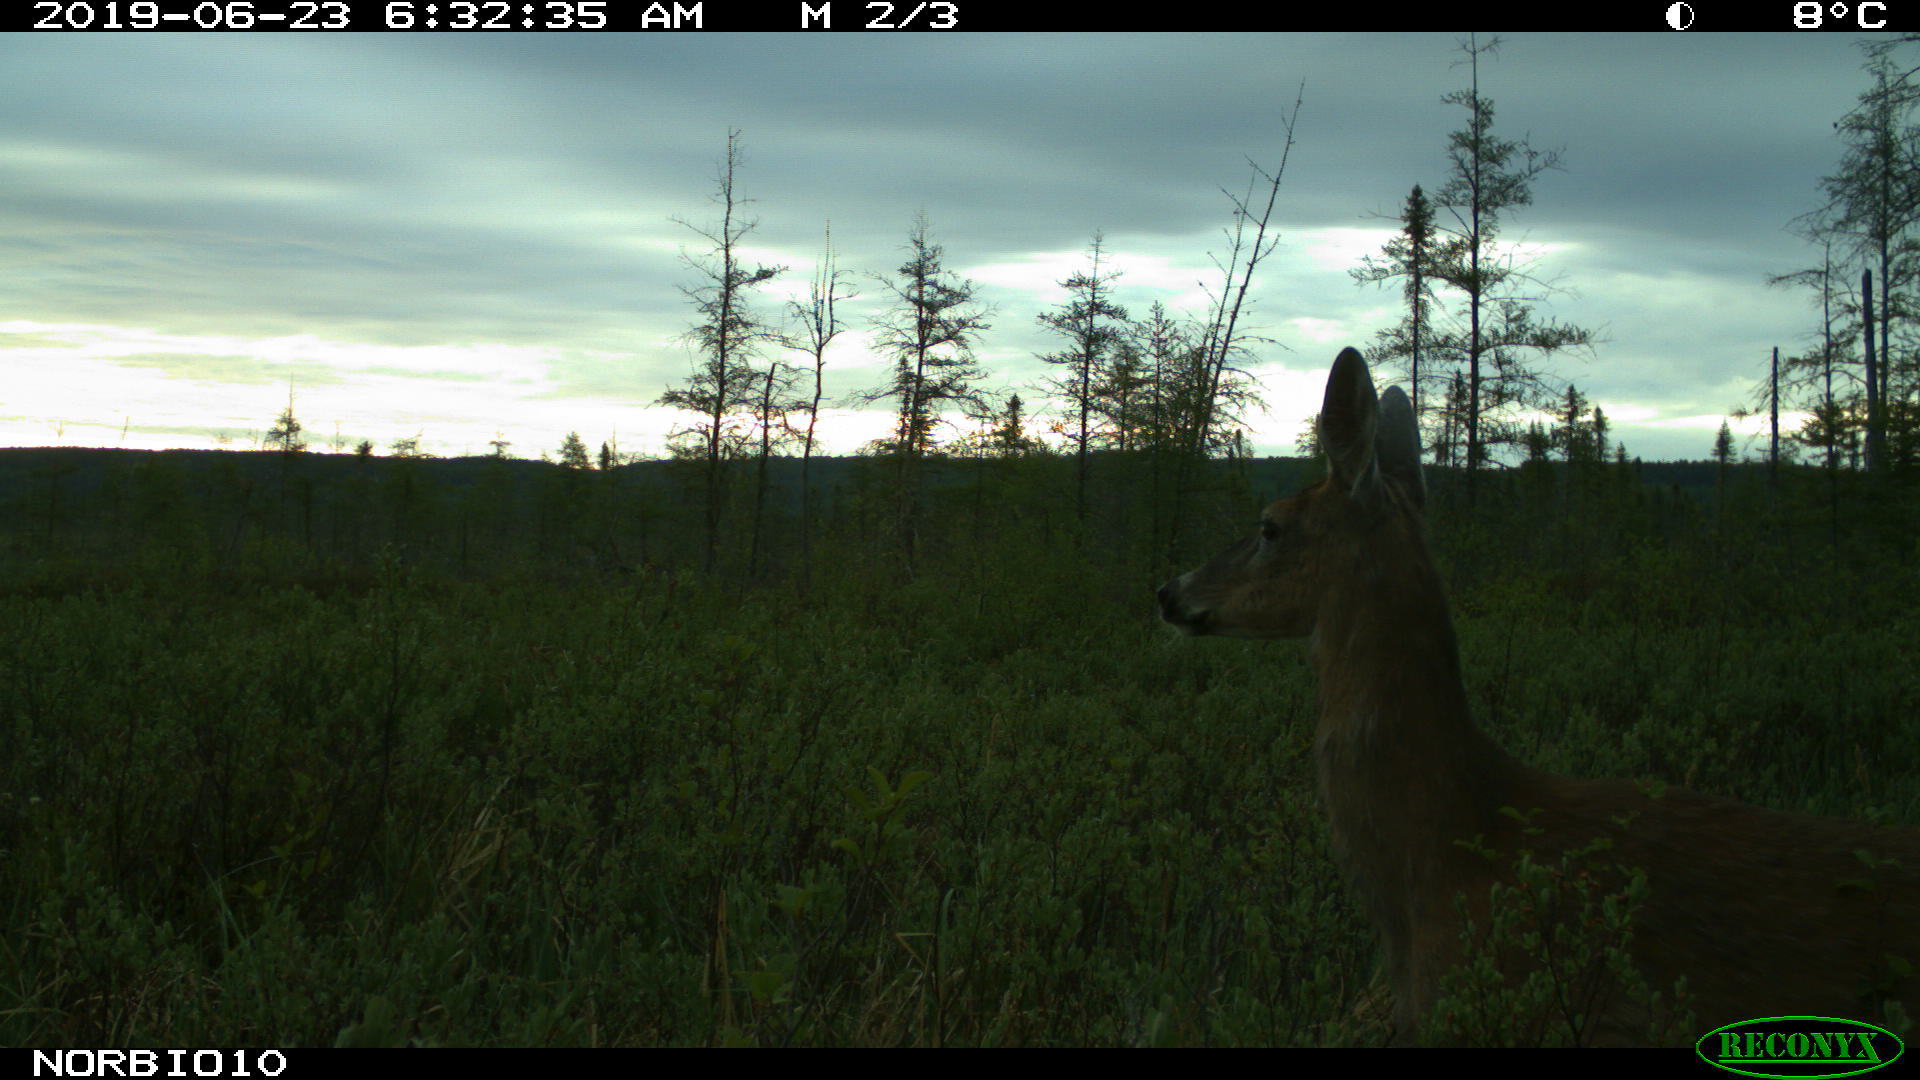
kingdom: Animalia
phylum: Chordata
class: Mammalia
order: Artiodactyla
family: Cervidae
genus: Odocoileus
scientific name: Odocoileus virginianus
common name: White-tailed deer
